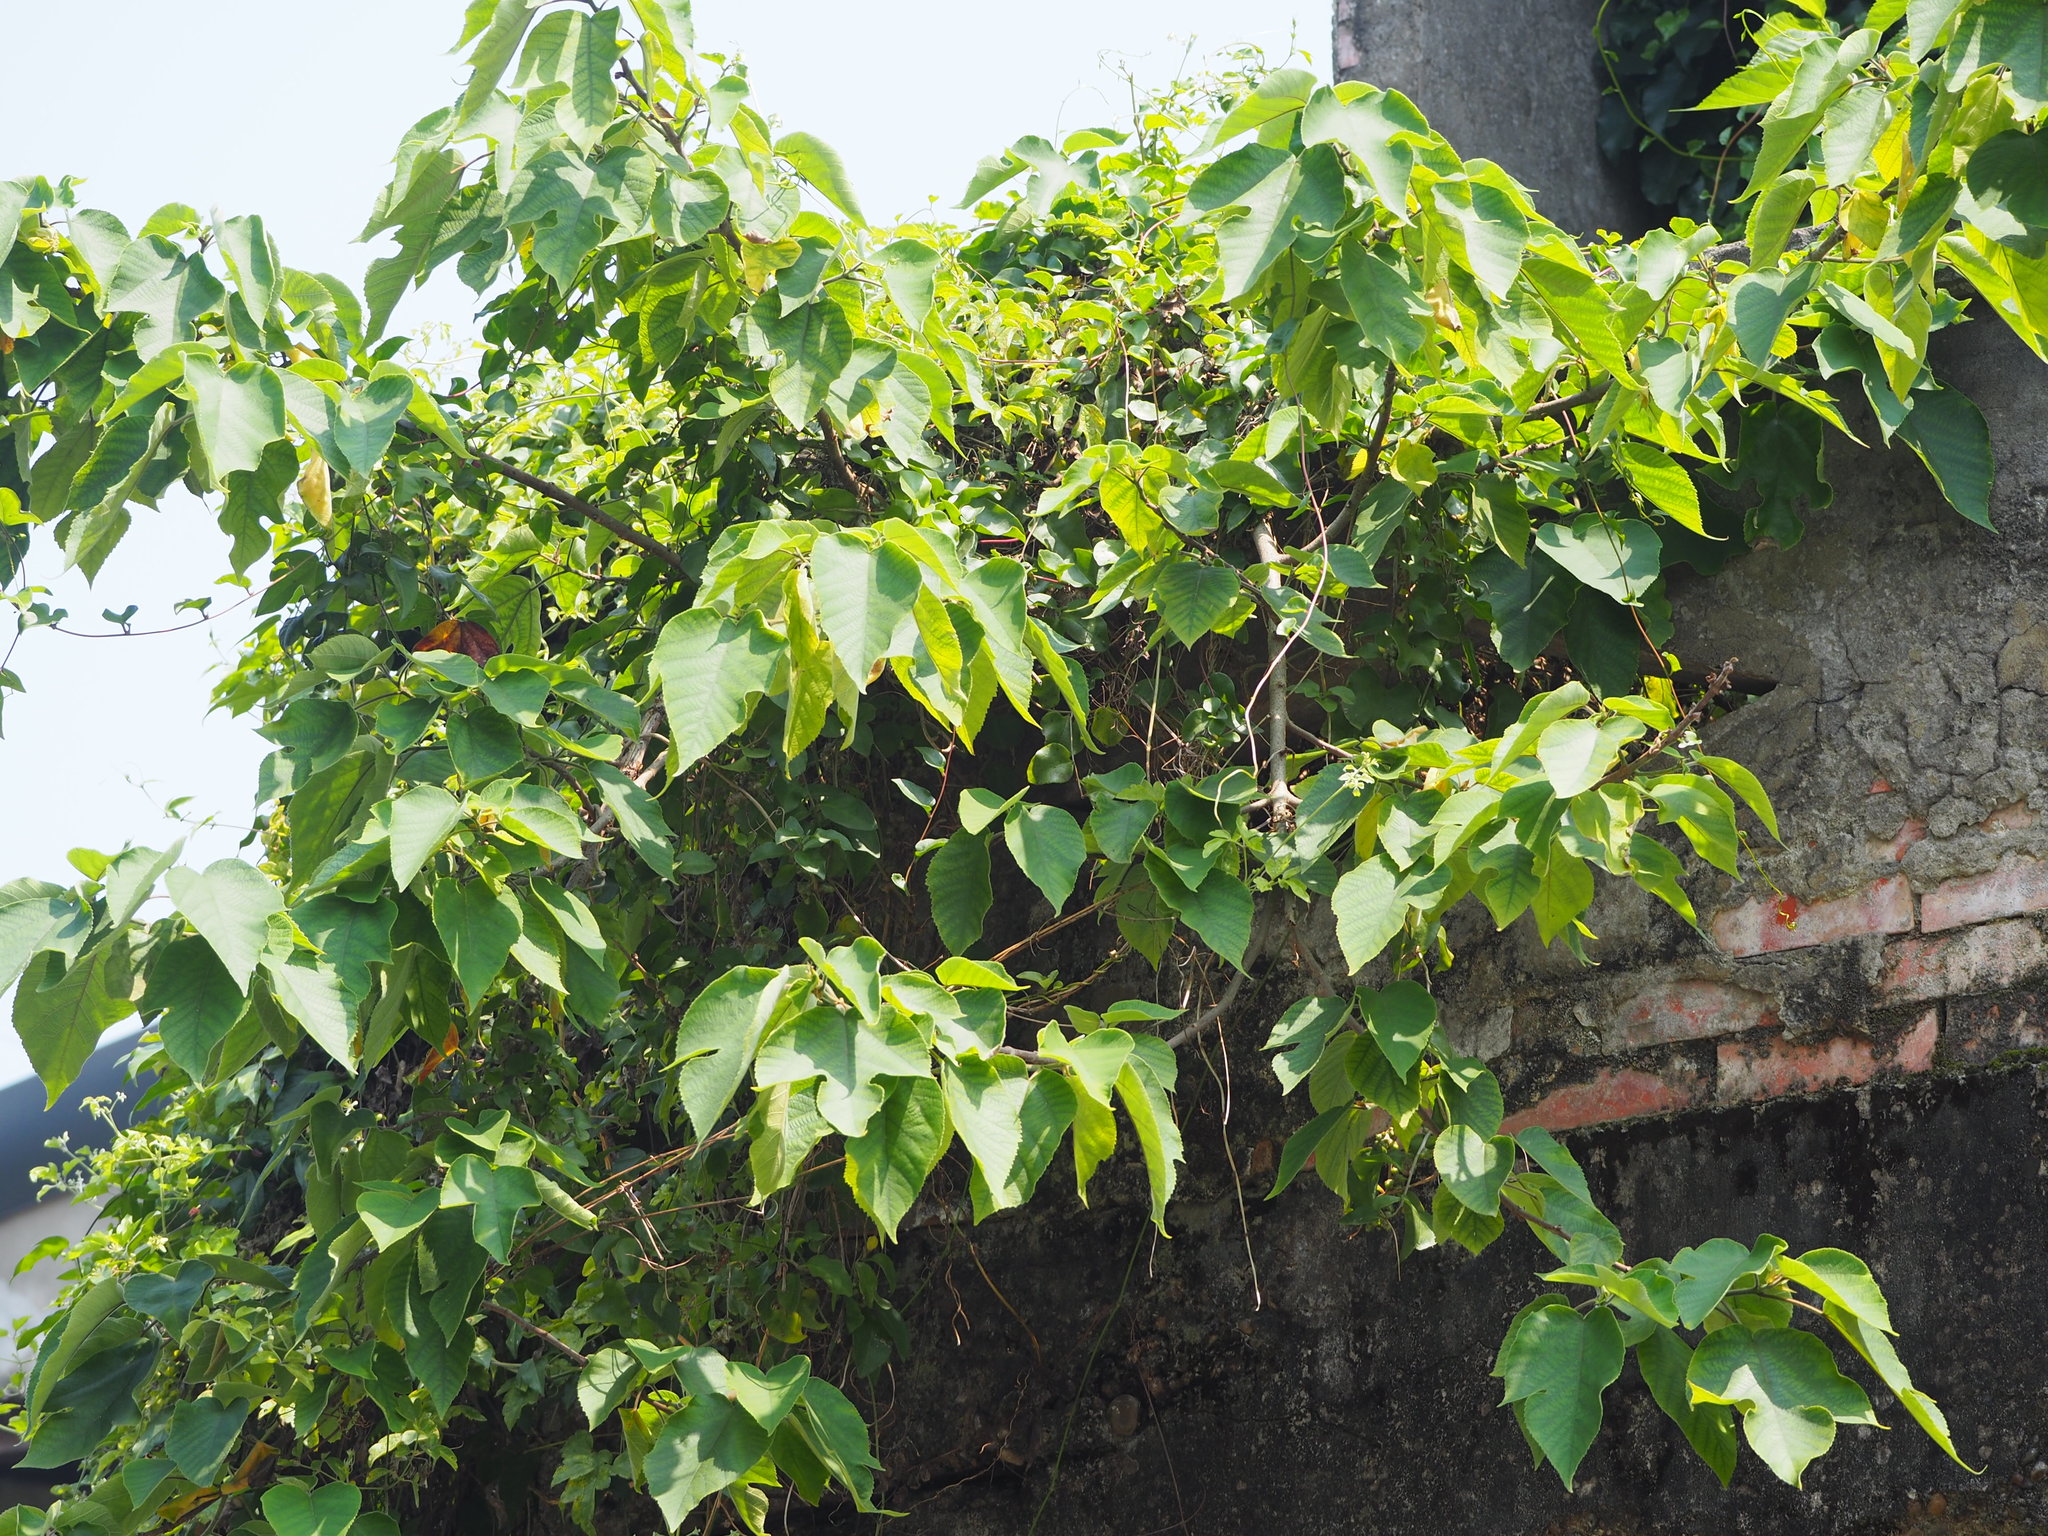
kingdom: Plantae
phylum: Tracheophyta
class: Magnoliopsida
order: Rosales
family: Moraceae
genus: Broussonetia
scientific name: Broussonetia papyrifera
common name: Paper mulberry
